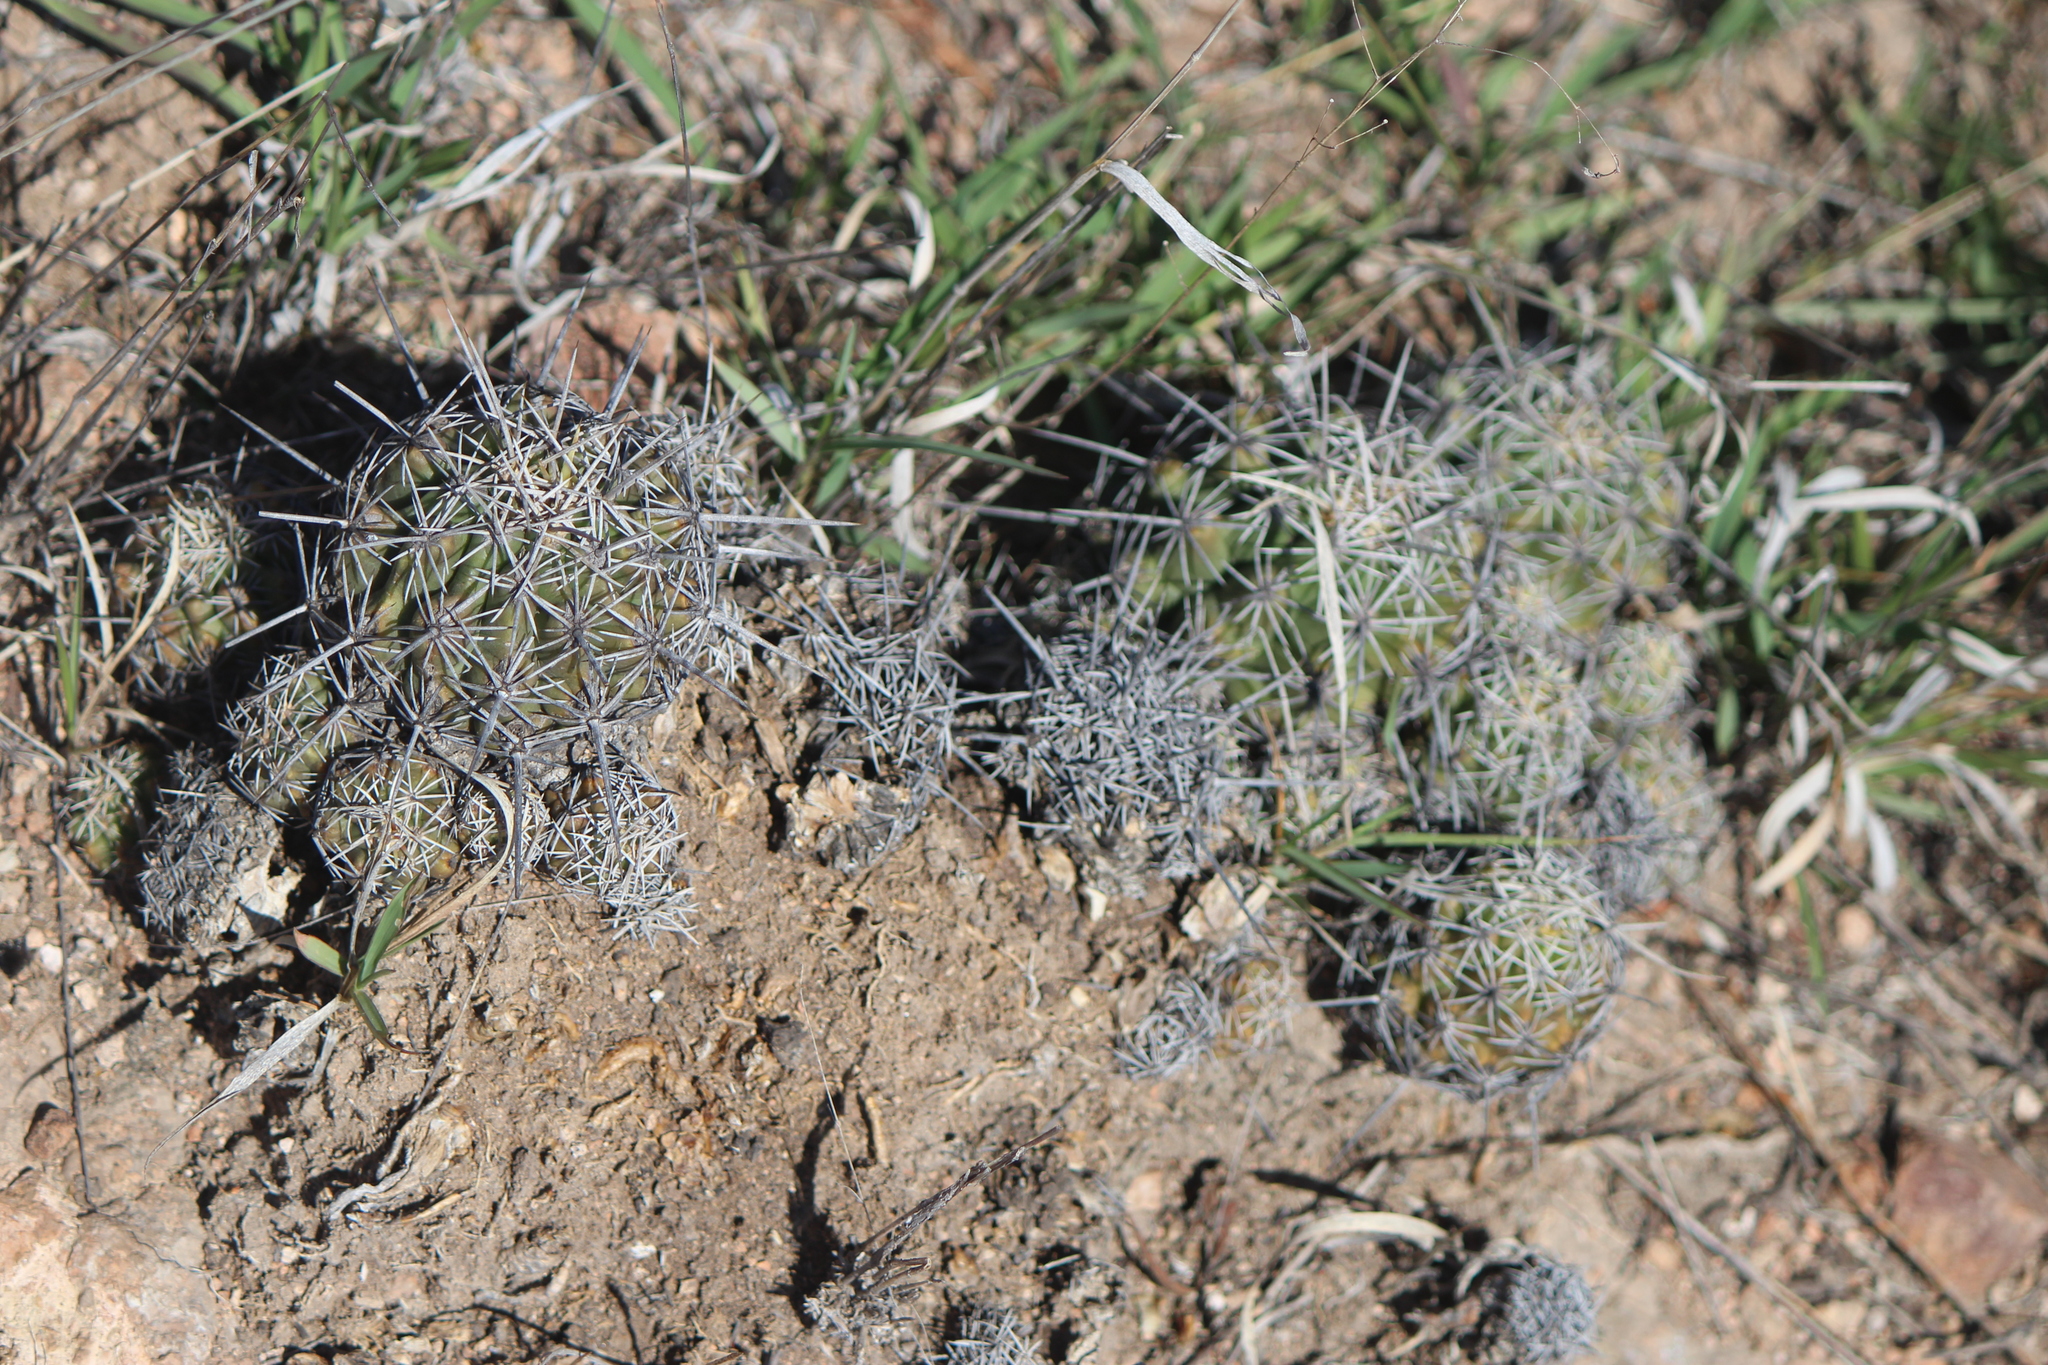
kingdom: Plantae
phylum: Tracheophyta
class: Magnoliopsida
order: Caryophyllales
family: Cactaceae
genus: Thelocactus
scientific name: Thelocactus leucacanthus
